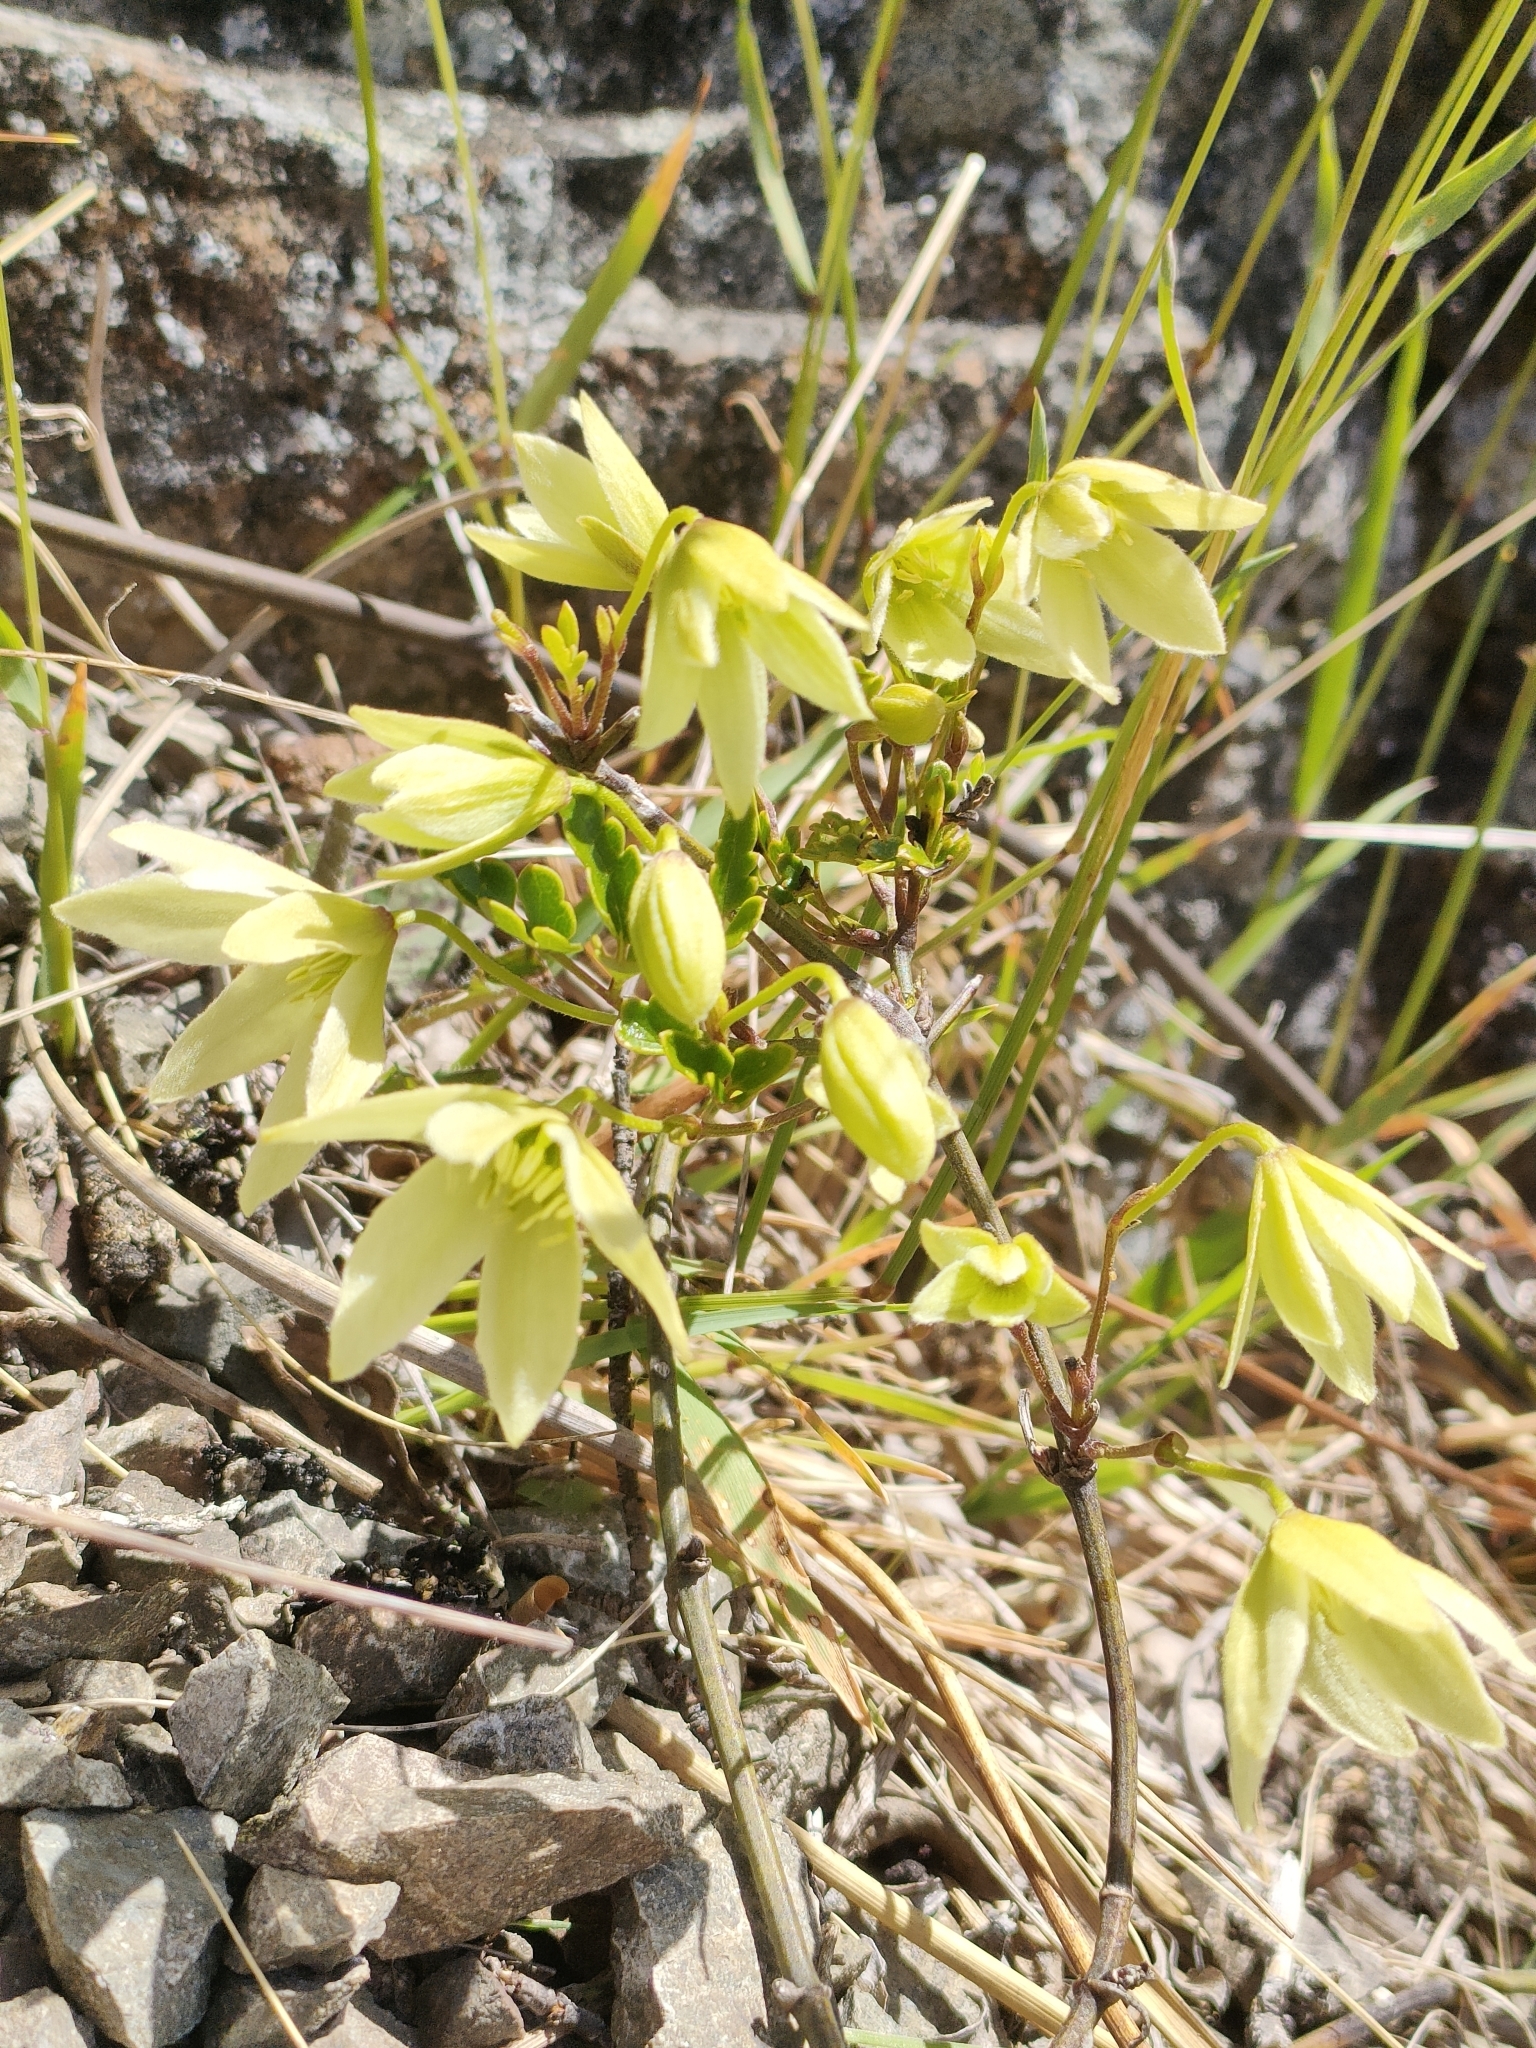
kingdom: Plantae
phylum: Tracheophyta
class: Magnoliopsida
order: Ranunculales
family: Ranunculaceae
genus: Clematis
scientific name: Clematis forsteri
